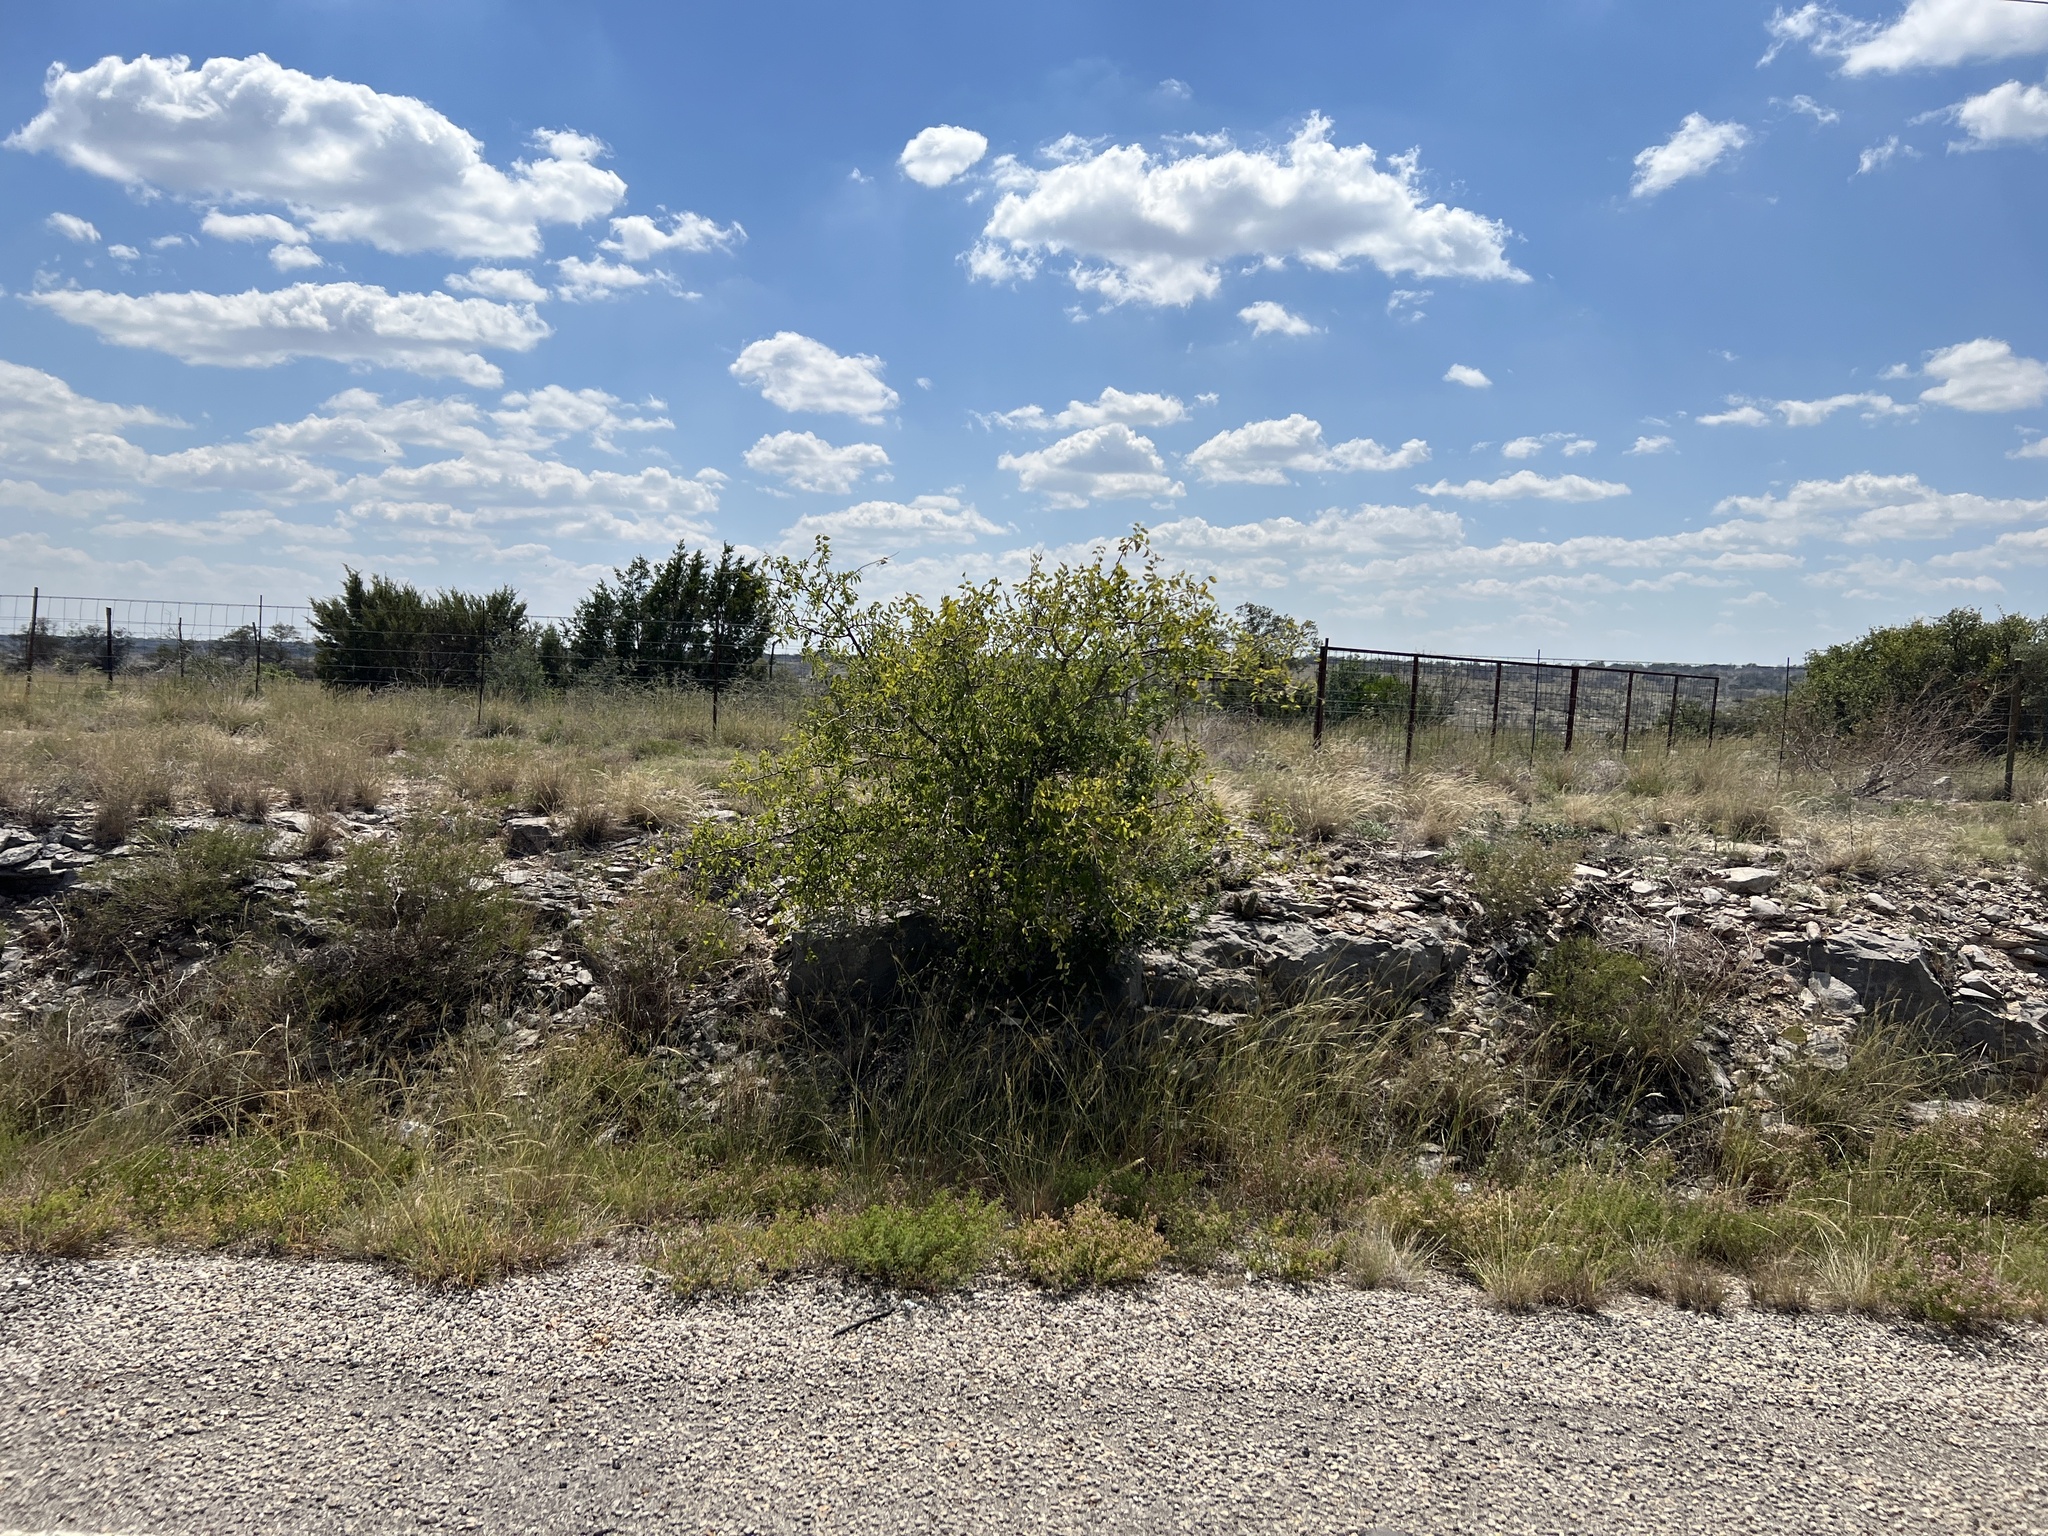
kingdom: Plantae
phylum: Tracheophyta
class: Magnoliopsida
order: Rosales
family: Cannabaceae
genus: Celtis
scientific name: Celtis reticulata
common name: Netleaf hackberry
